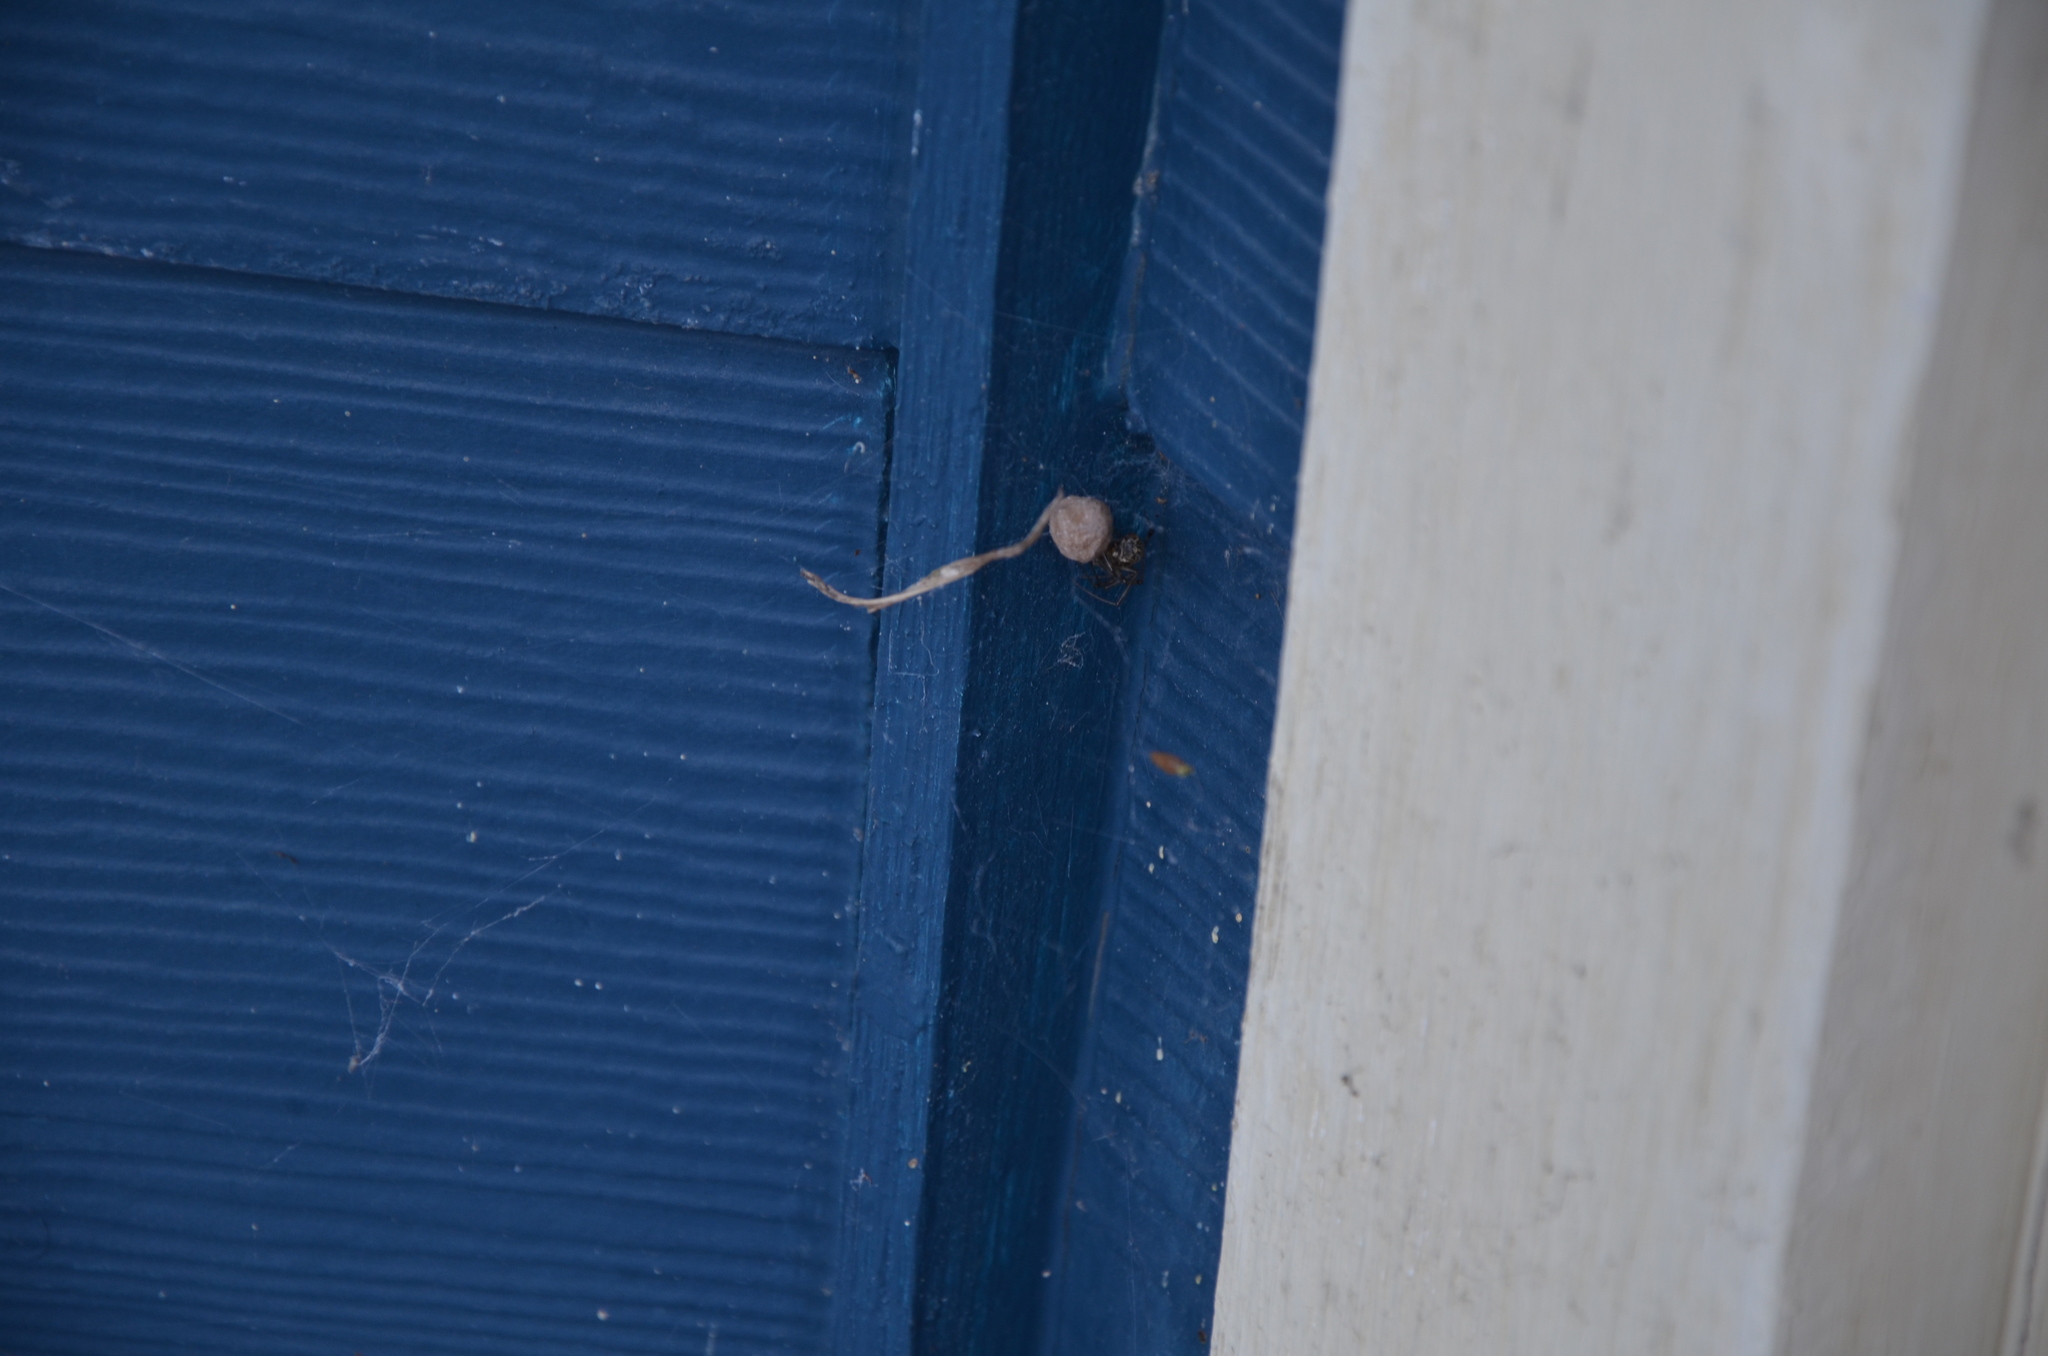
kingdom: Animalia
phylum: Arthropoda
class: Arachnida
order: Araneae
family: Theridiidae
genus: Parasteatoda
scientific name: Parasteatoda tepidariorum
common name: Common house spider
